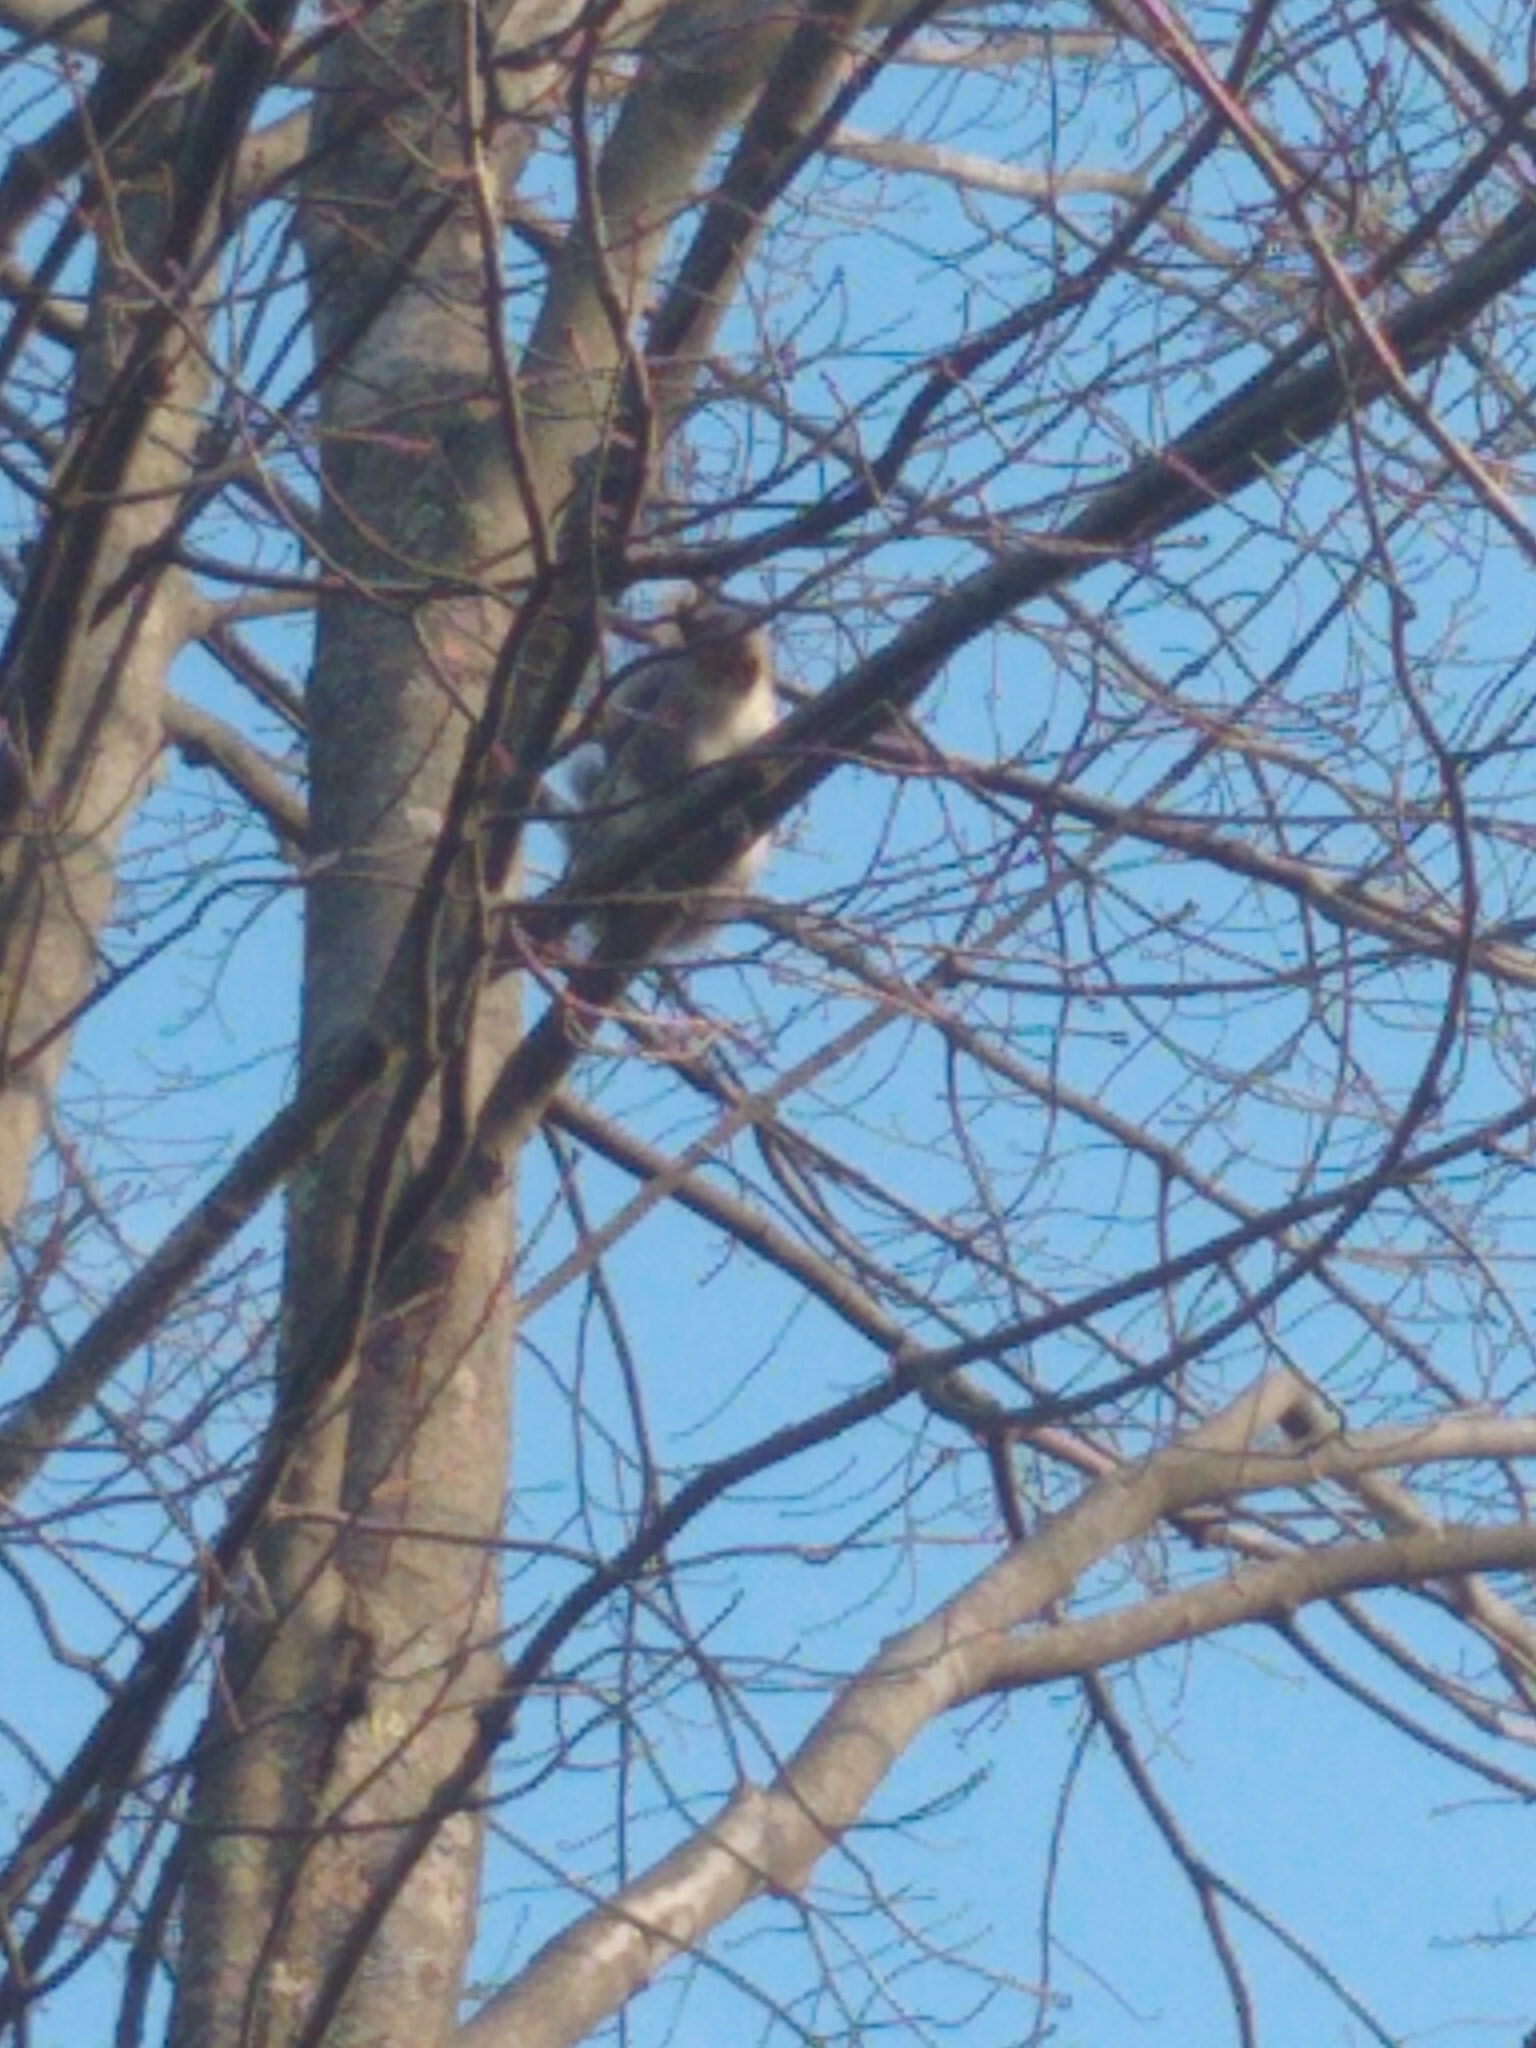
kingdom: Animalia
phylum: Chordata
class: Mammalia
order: Rodentia
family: Sciuridae
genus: Sciurus
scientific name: Sciurus carolinensis
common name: Eastern gray squirrel
